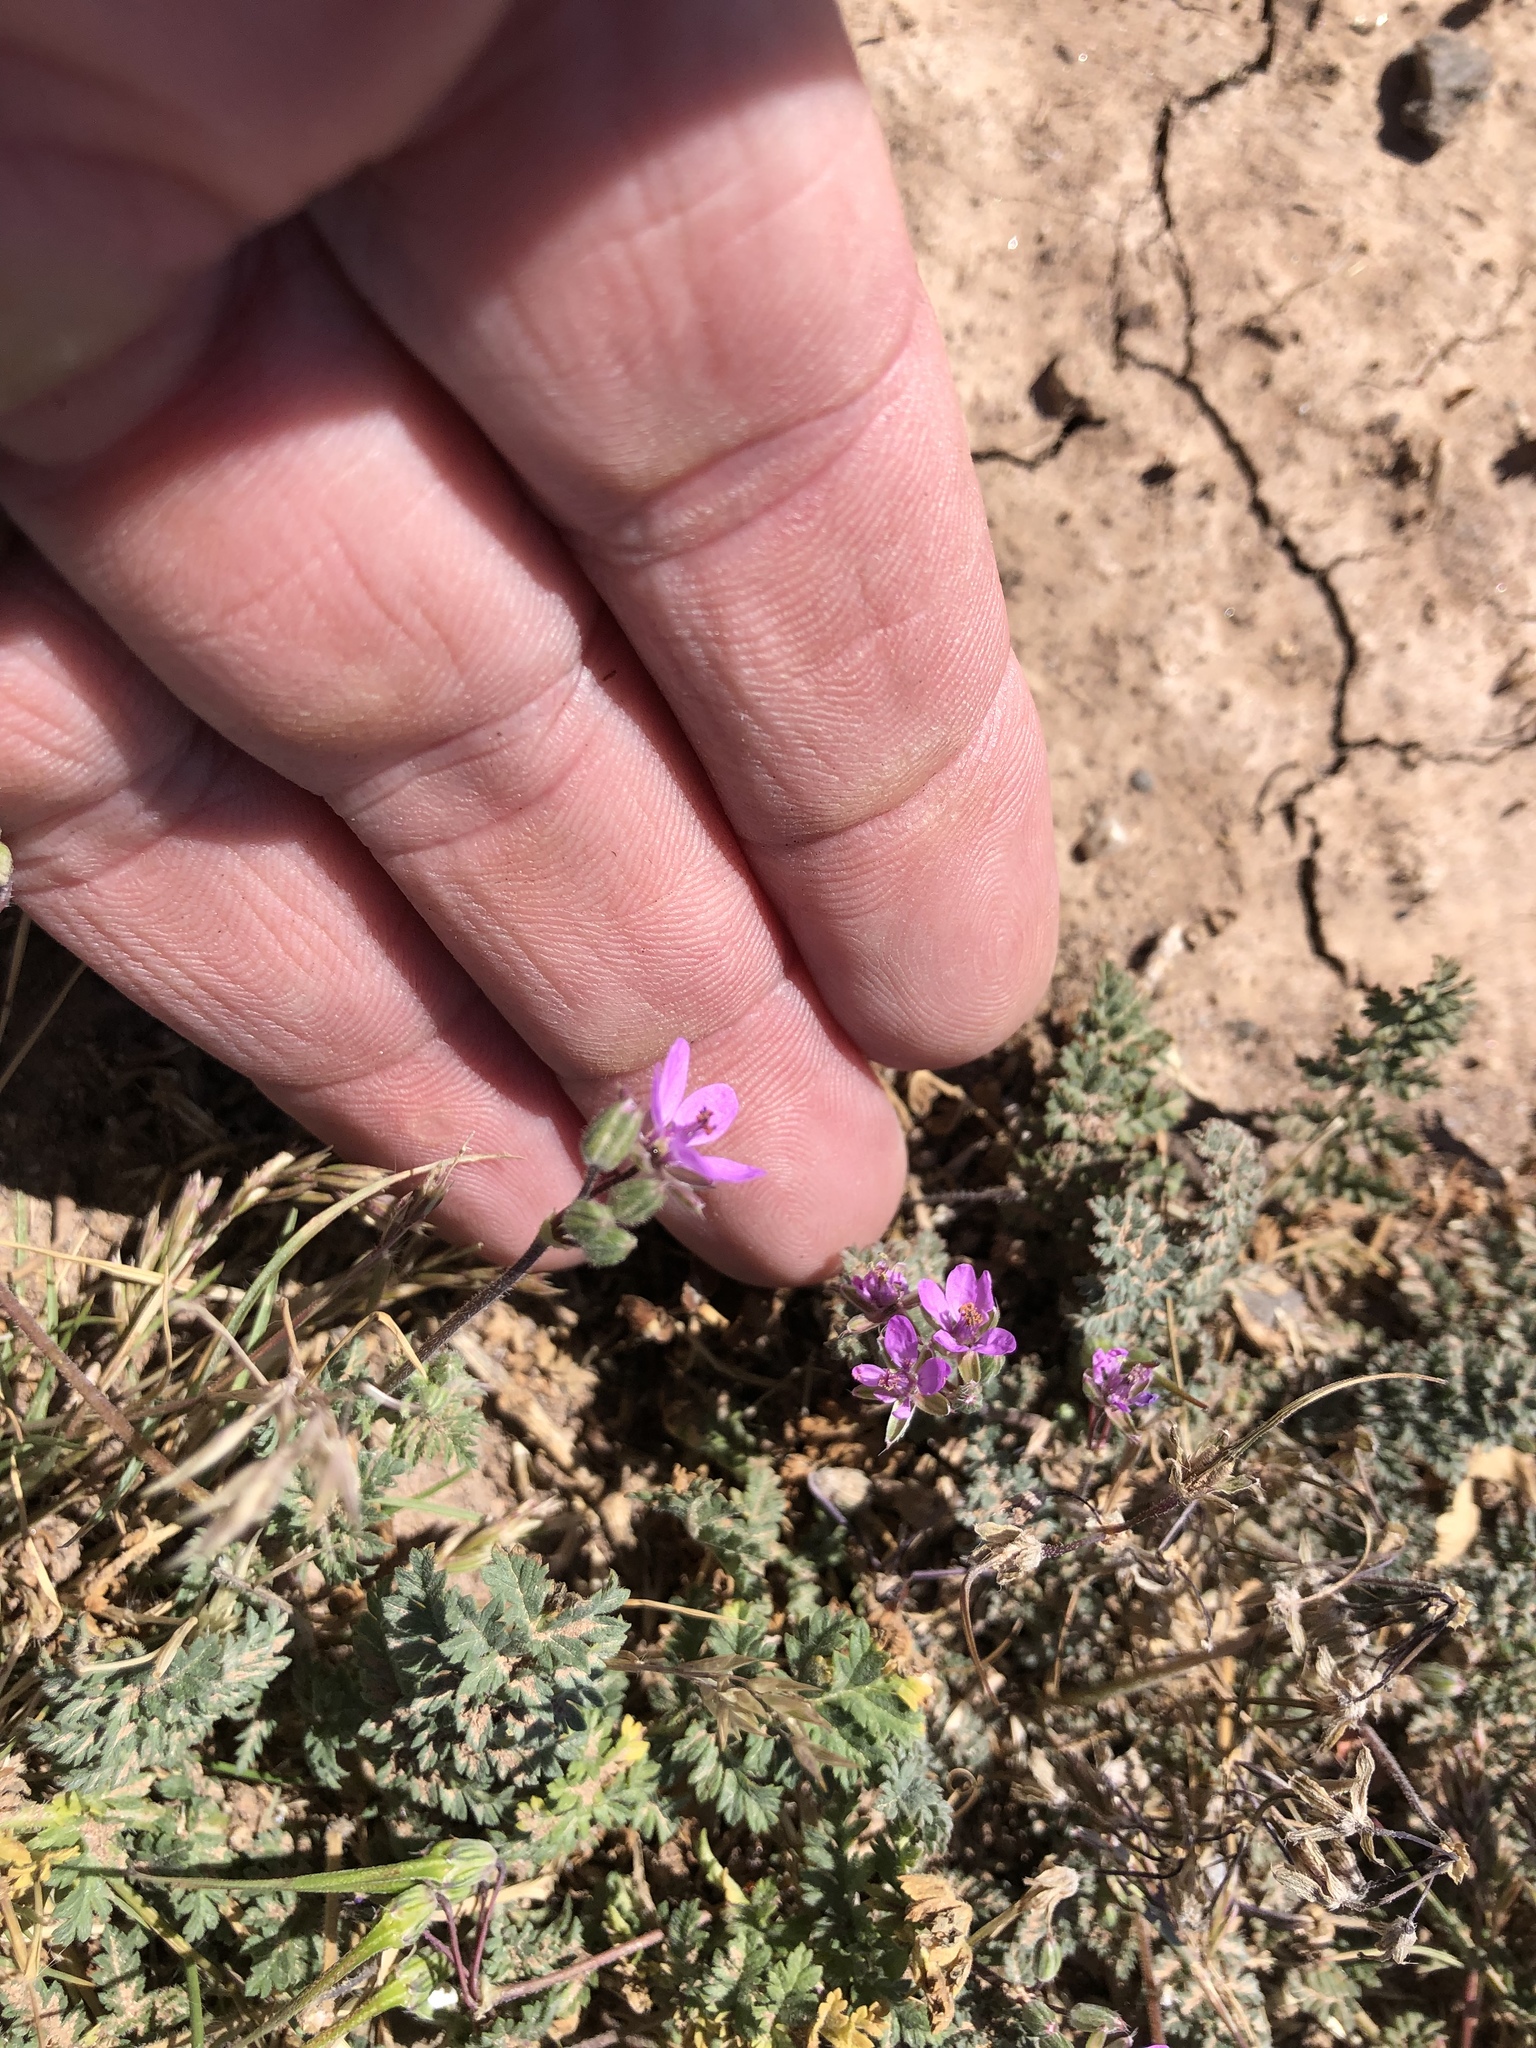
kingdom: Plantae
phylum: Tracheophyta
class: Magnoliopsida
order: Geraniales
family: Geraniaceae
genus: Erodium
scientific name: Erodium cicutarium
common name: Common stork's-bill
